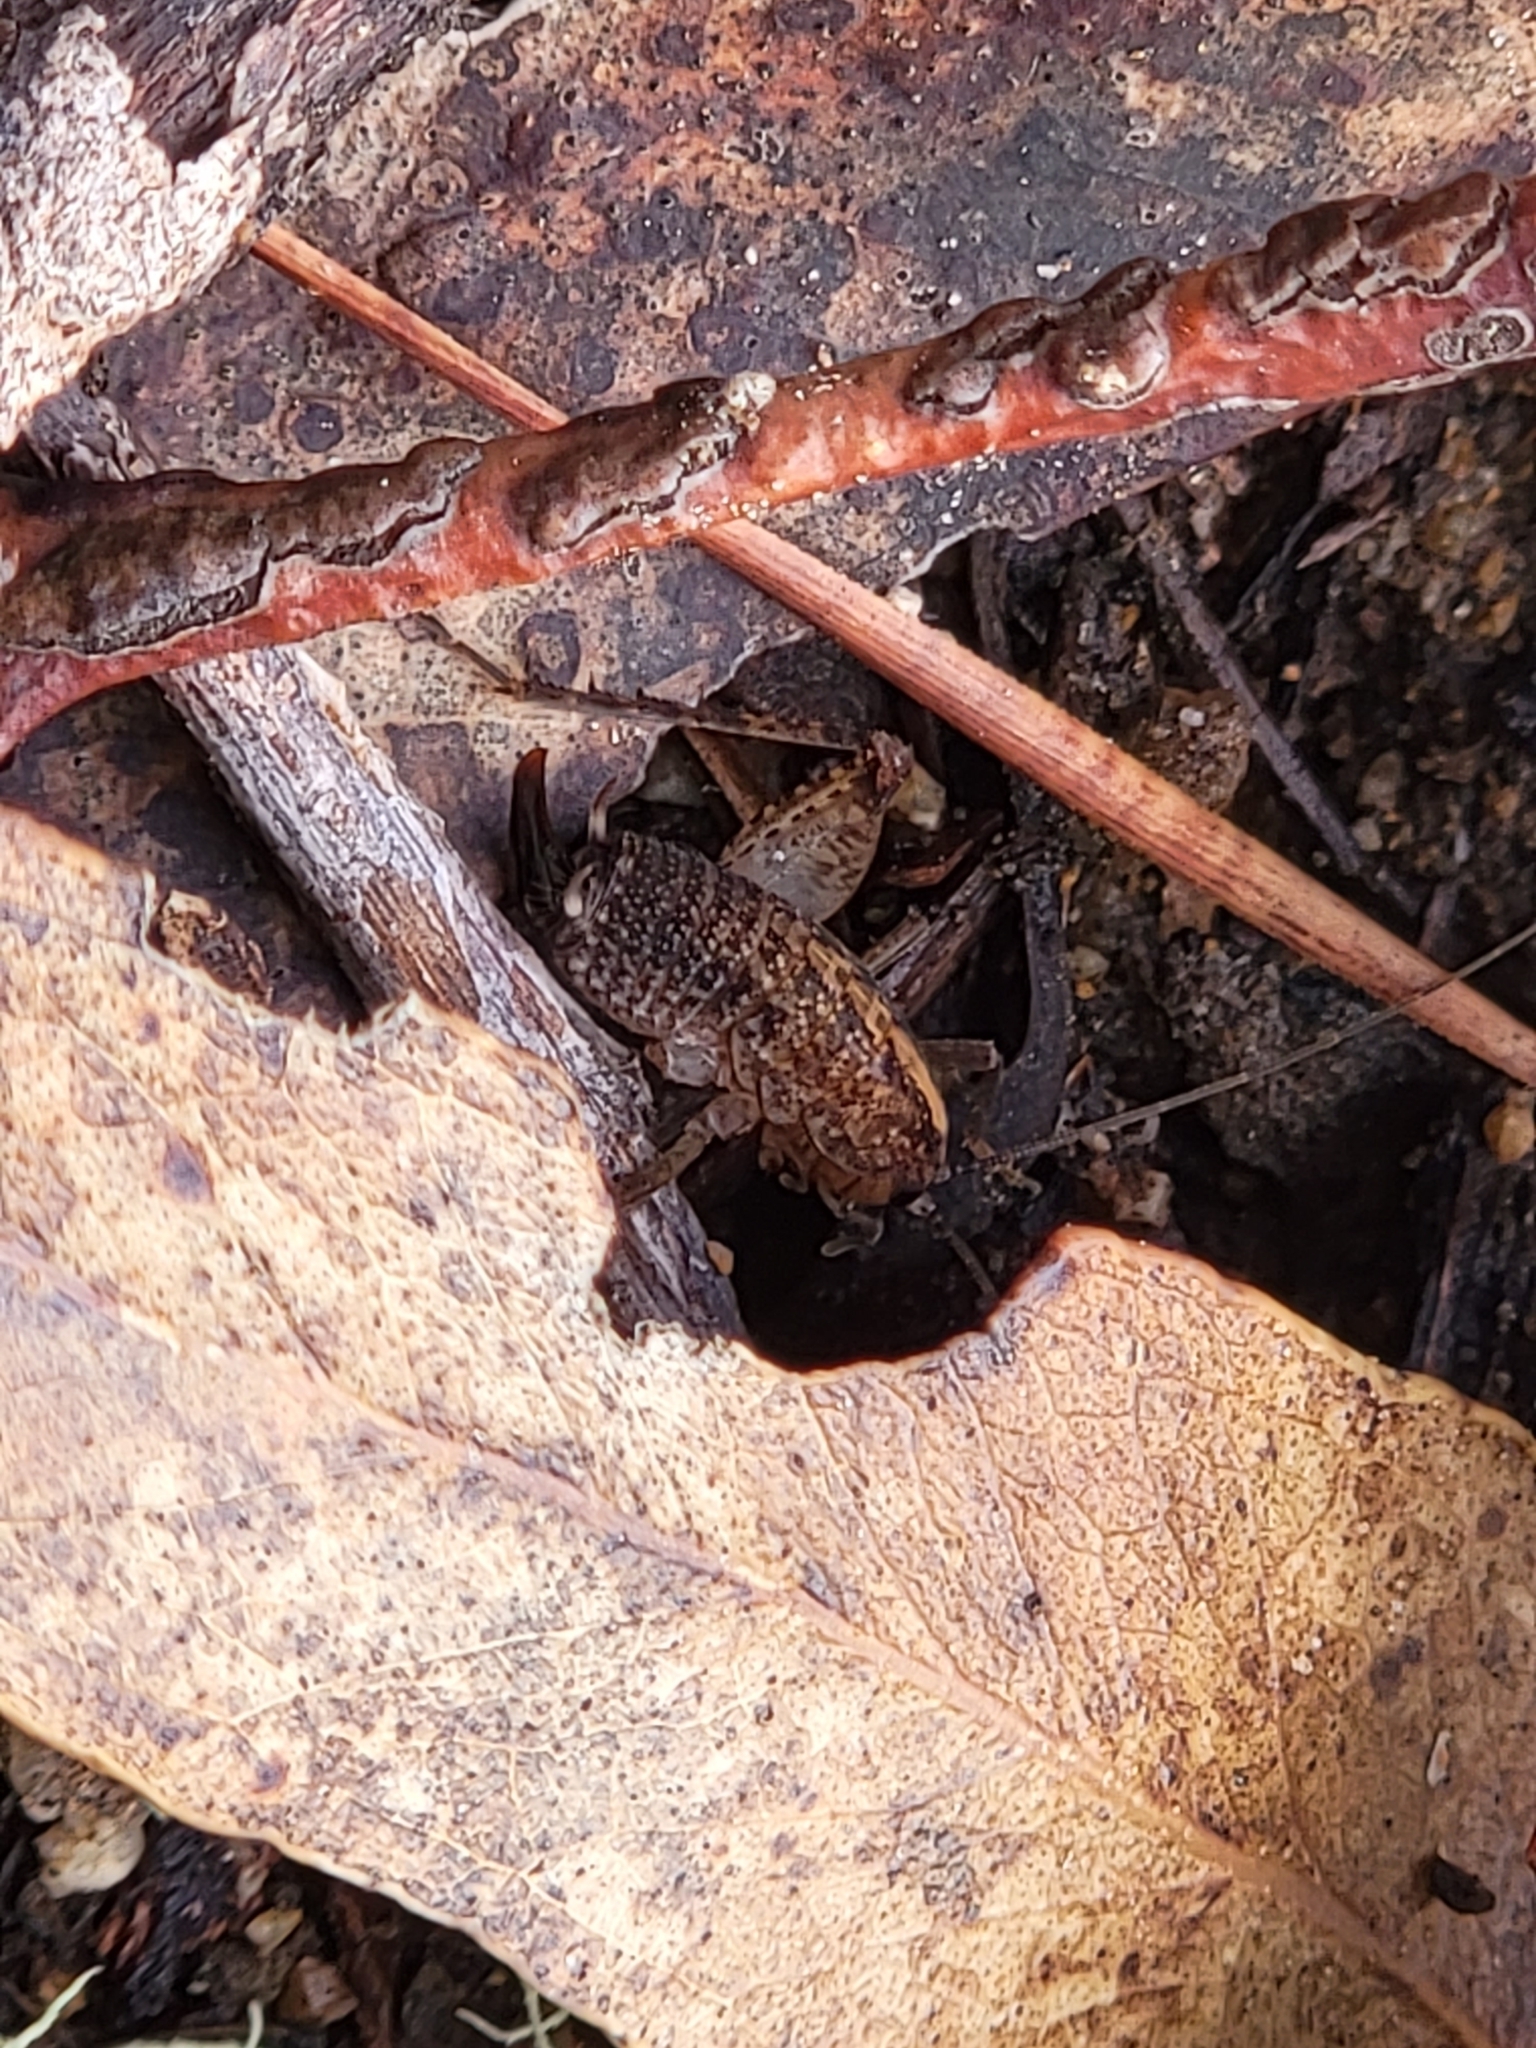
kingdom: Animalia
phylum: Arthropoda
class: Insecta
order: Orthoptera
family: Rhaphidophoridae
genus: Pristoceuthophilus
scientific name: Pristoceuthophilus
